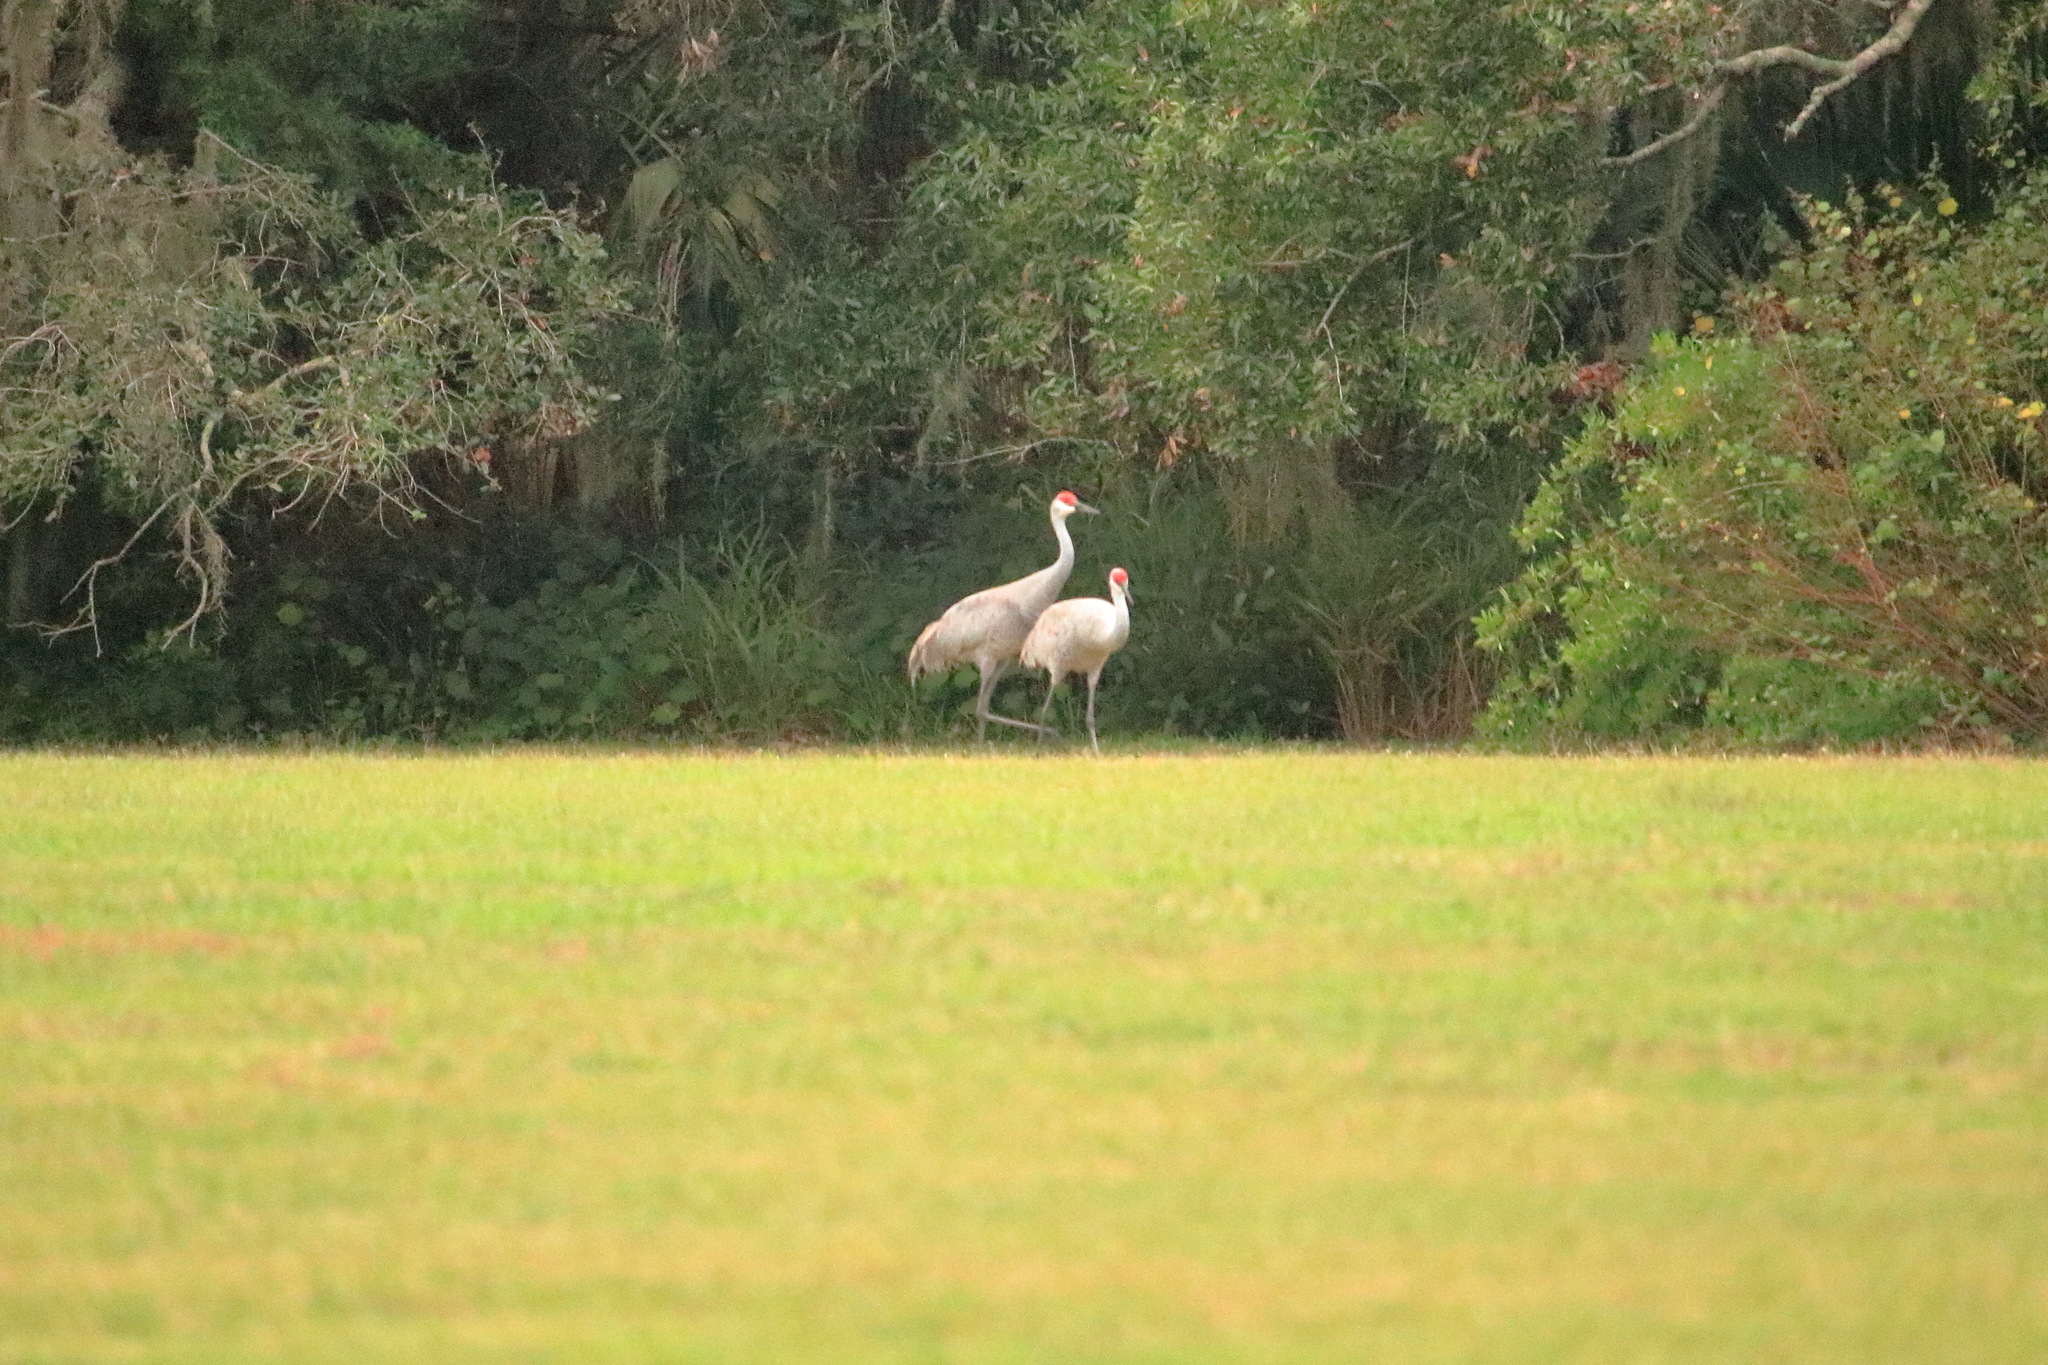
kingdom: Animalia
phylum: Chordata
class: Aves
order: Gruiformes
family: Gruidae
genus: Grus
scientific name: Grus canadensis
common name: Sandhill crane
